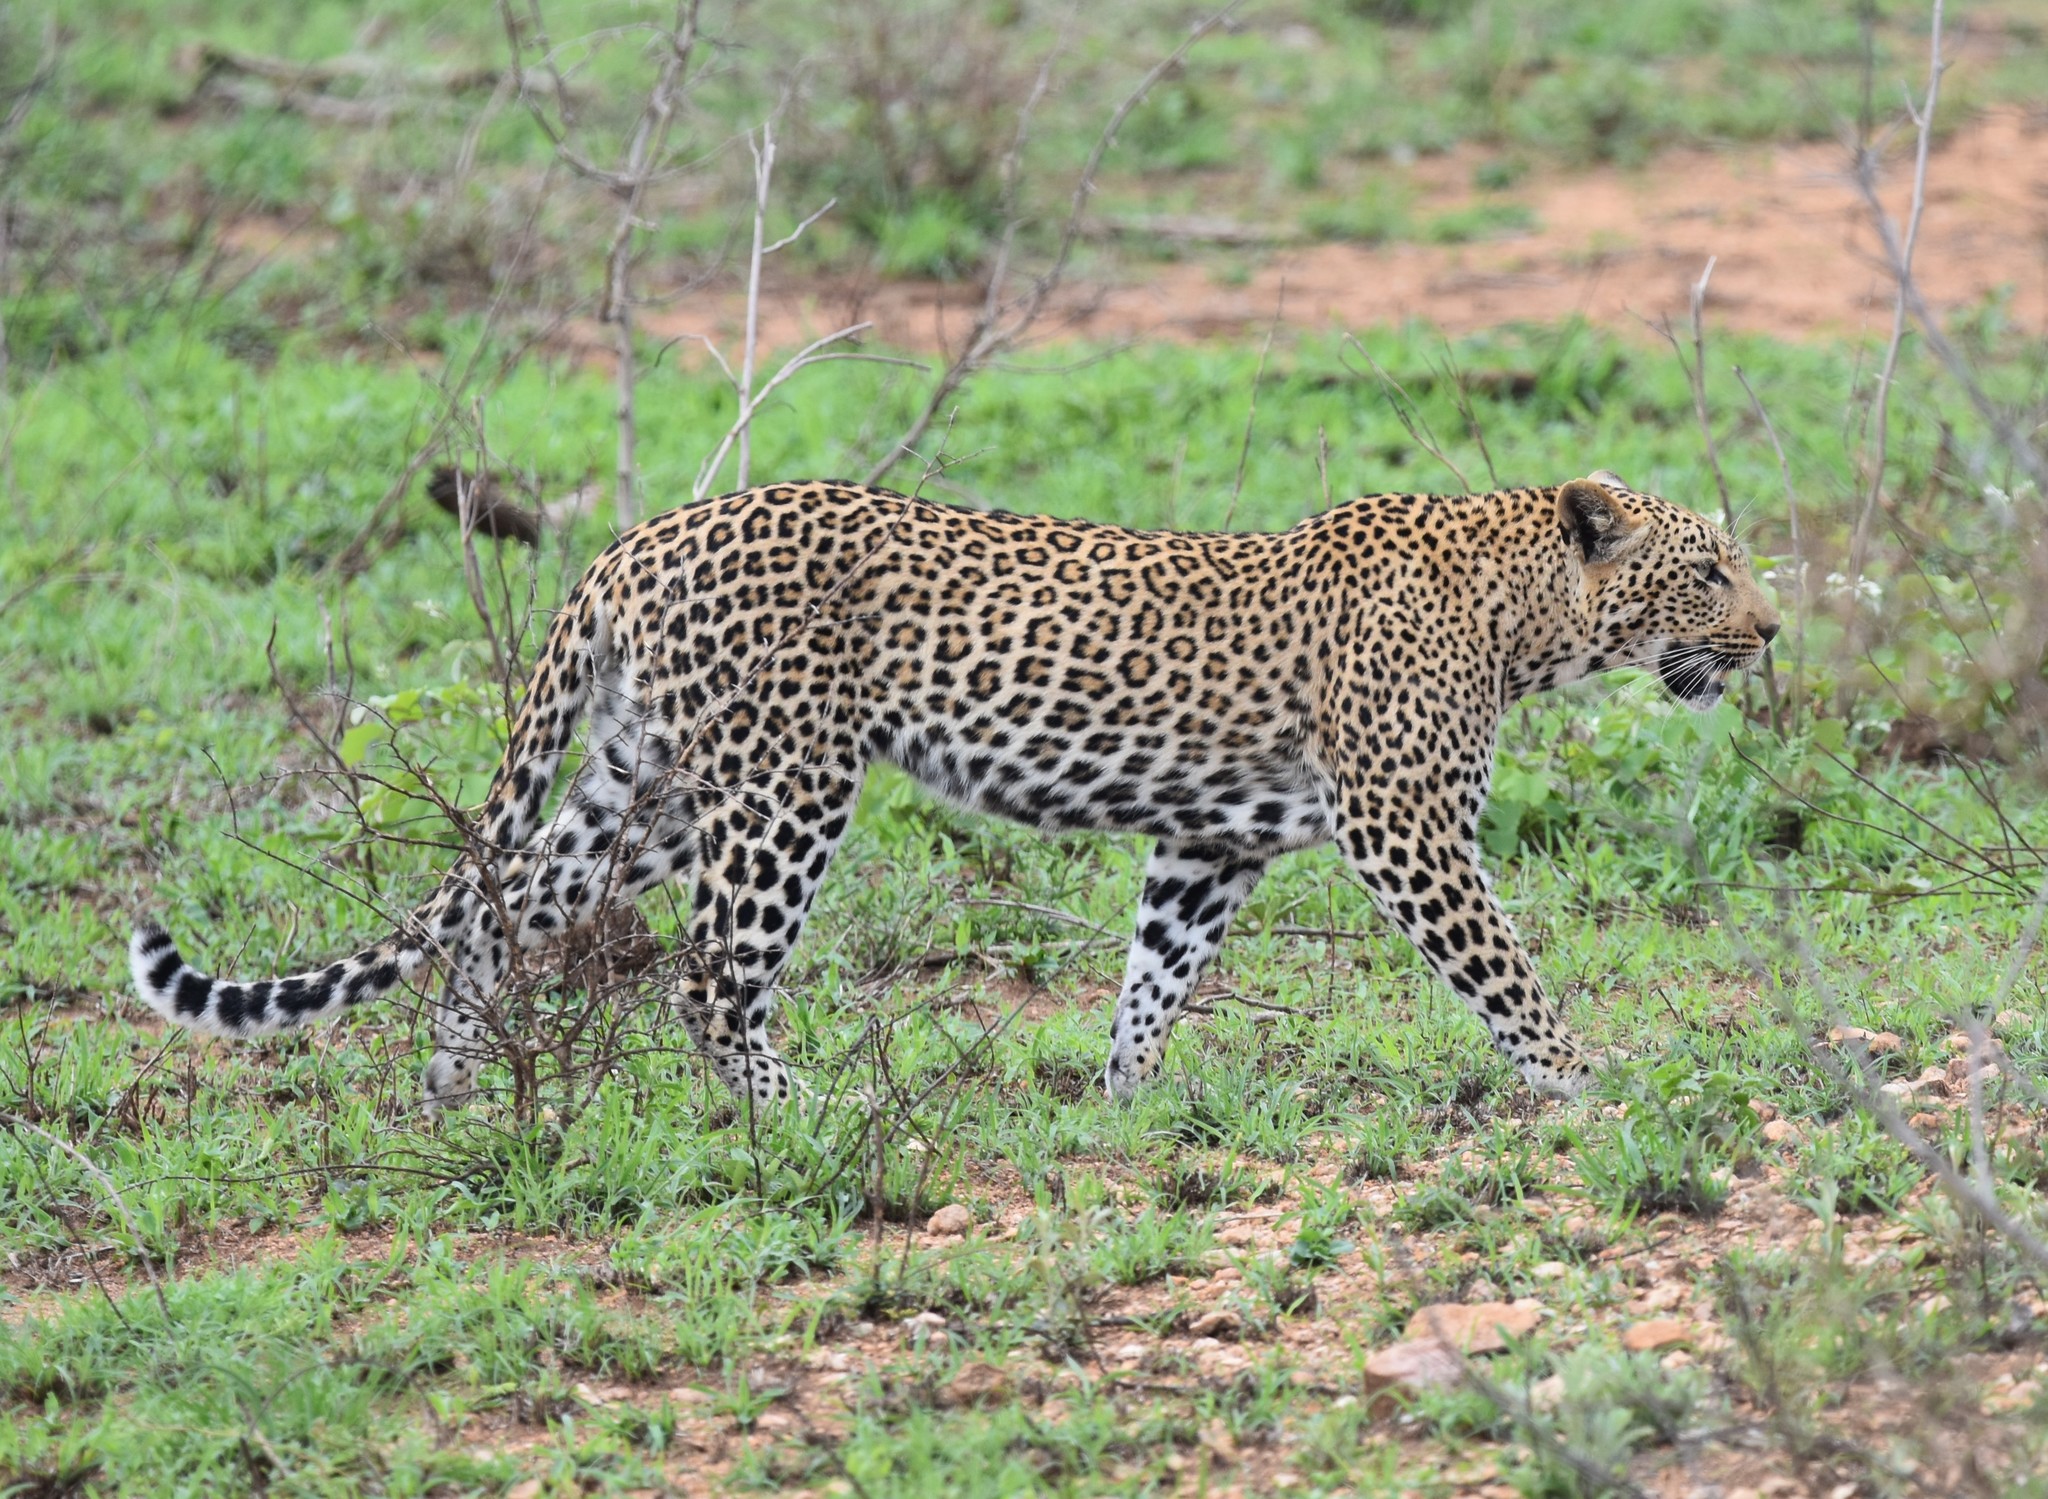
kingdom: Animalia
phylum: Chordata
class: Mammalia
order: Carnivora
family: Felidae
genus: Panthera
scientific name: Panthera pardus
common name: Leopard
